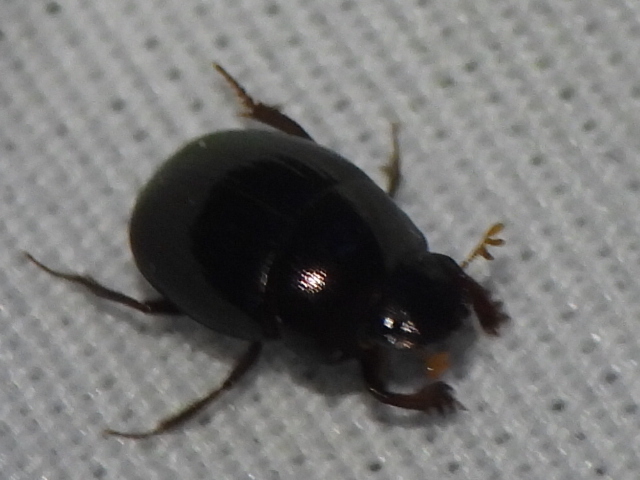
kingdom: Animalia
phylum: Arthropoda
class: Insecta
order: Coleoptera
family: Scarabaeidae
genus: Pseudocanthon
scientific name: Pseudocanthon perplexus
